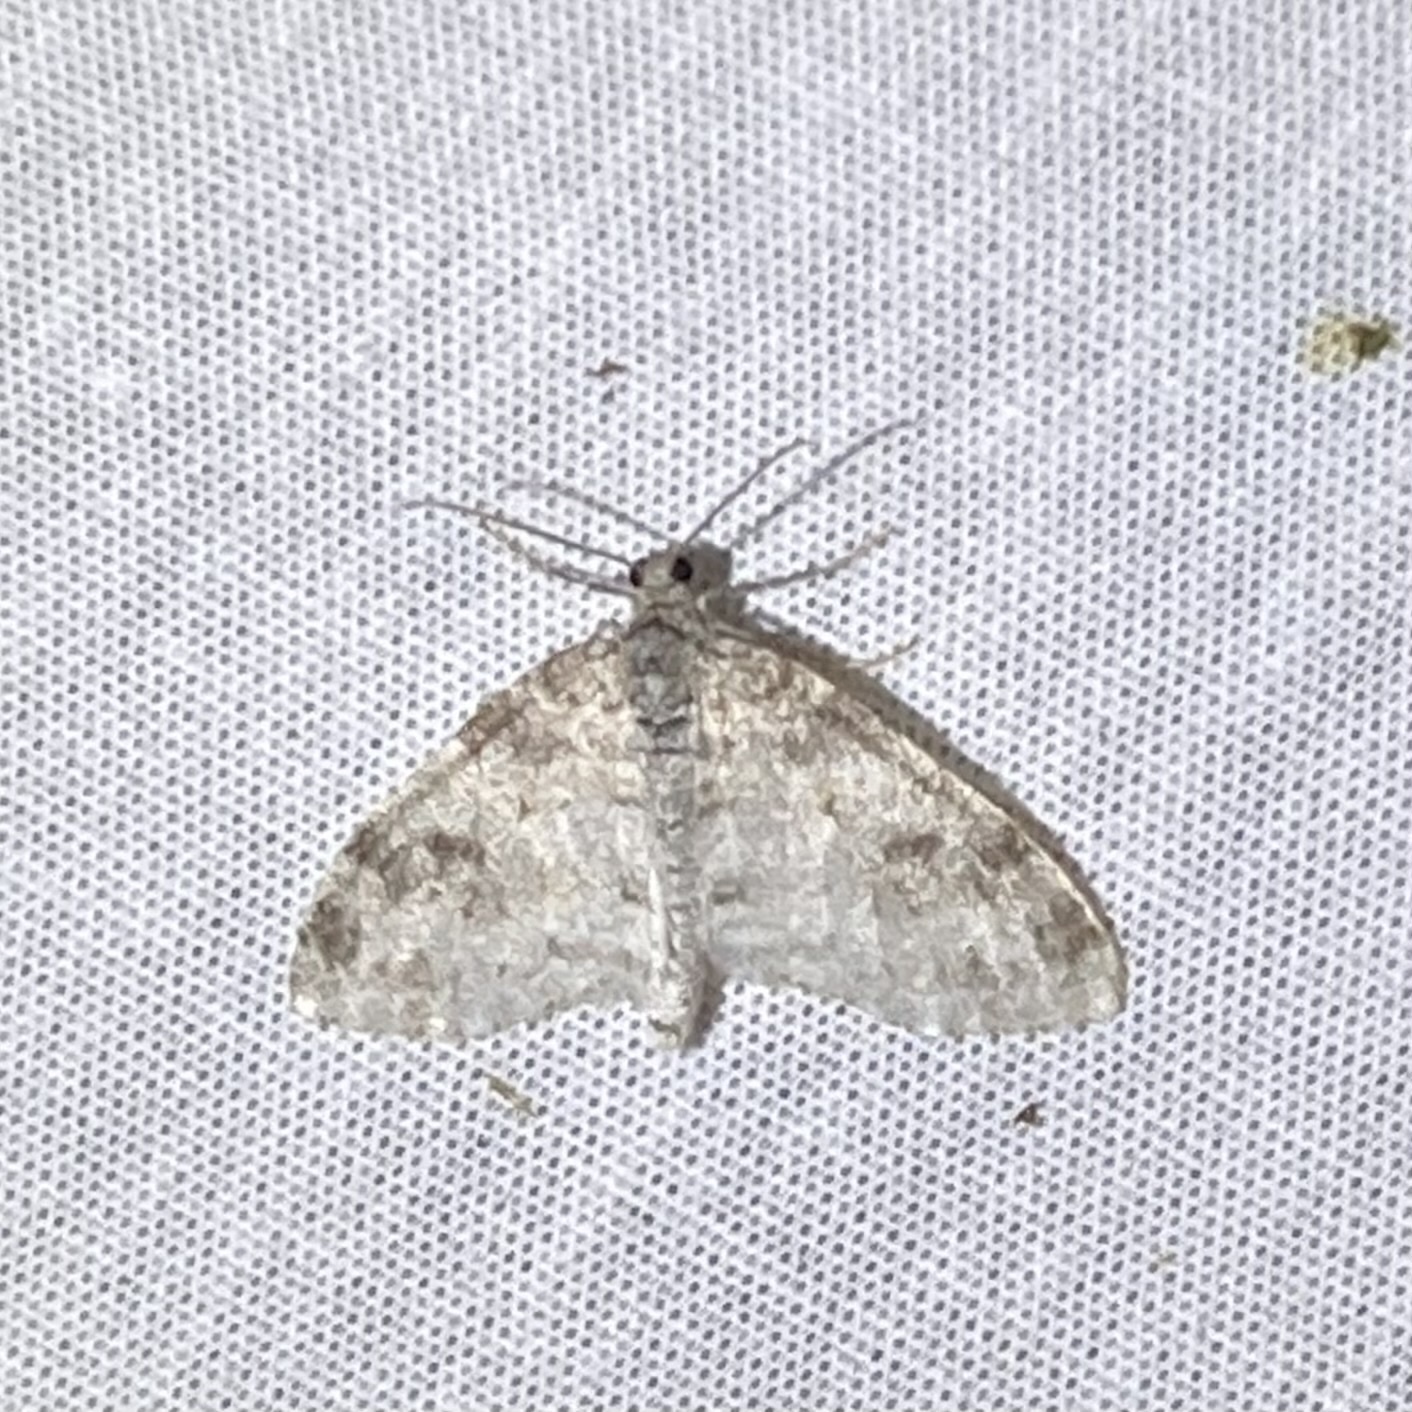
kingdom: Animalia
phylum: Arthropoda
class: Insecta
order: Lepidoptera
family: Geometridae
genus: Lobophora
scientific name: Lobophora nivigerata
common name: Powdered bigwing
